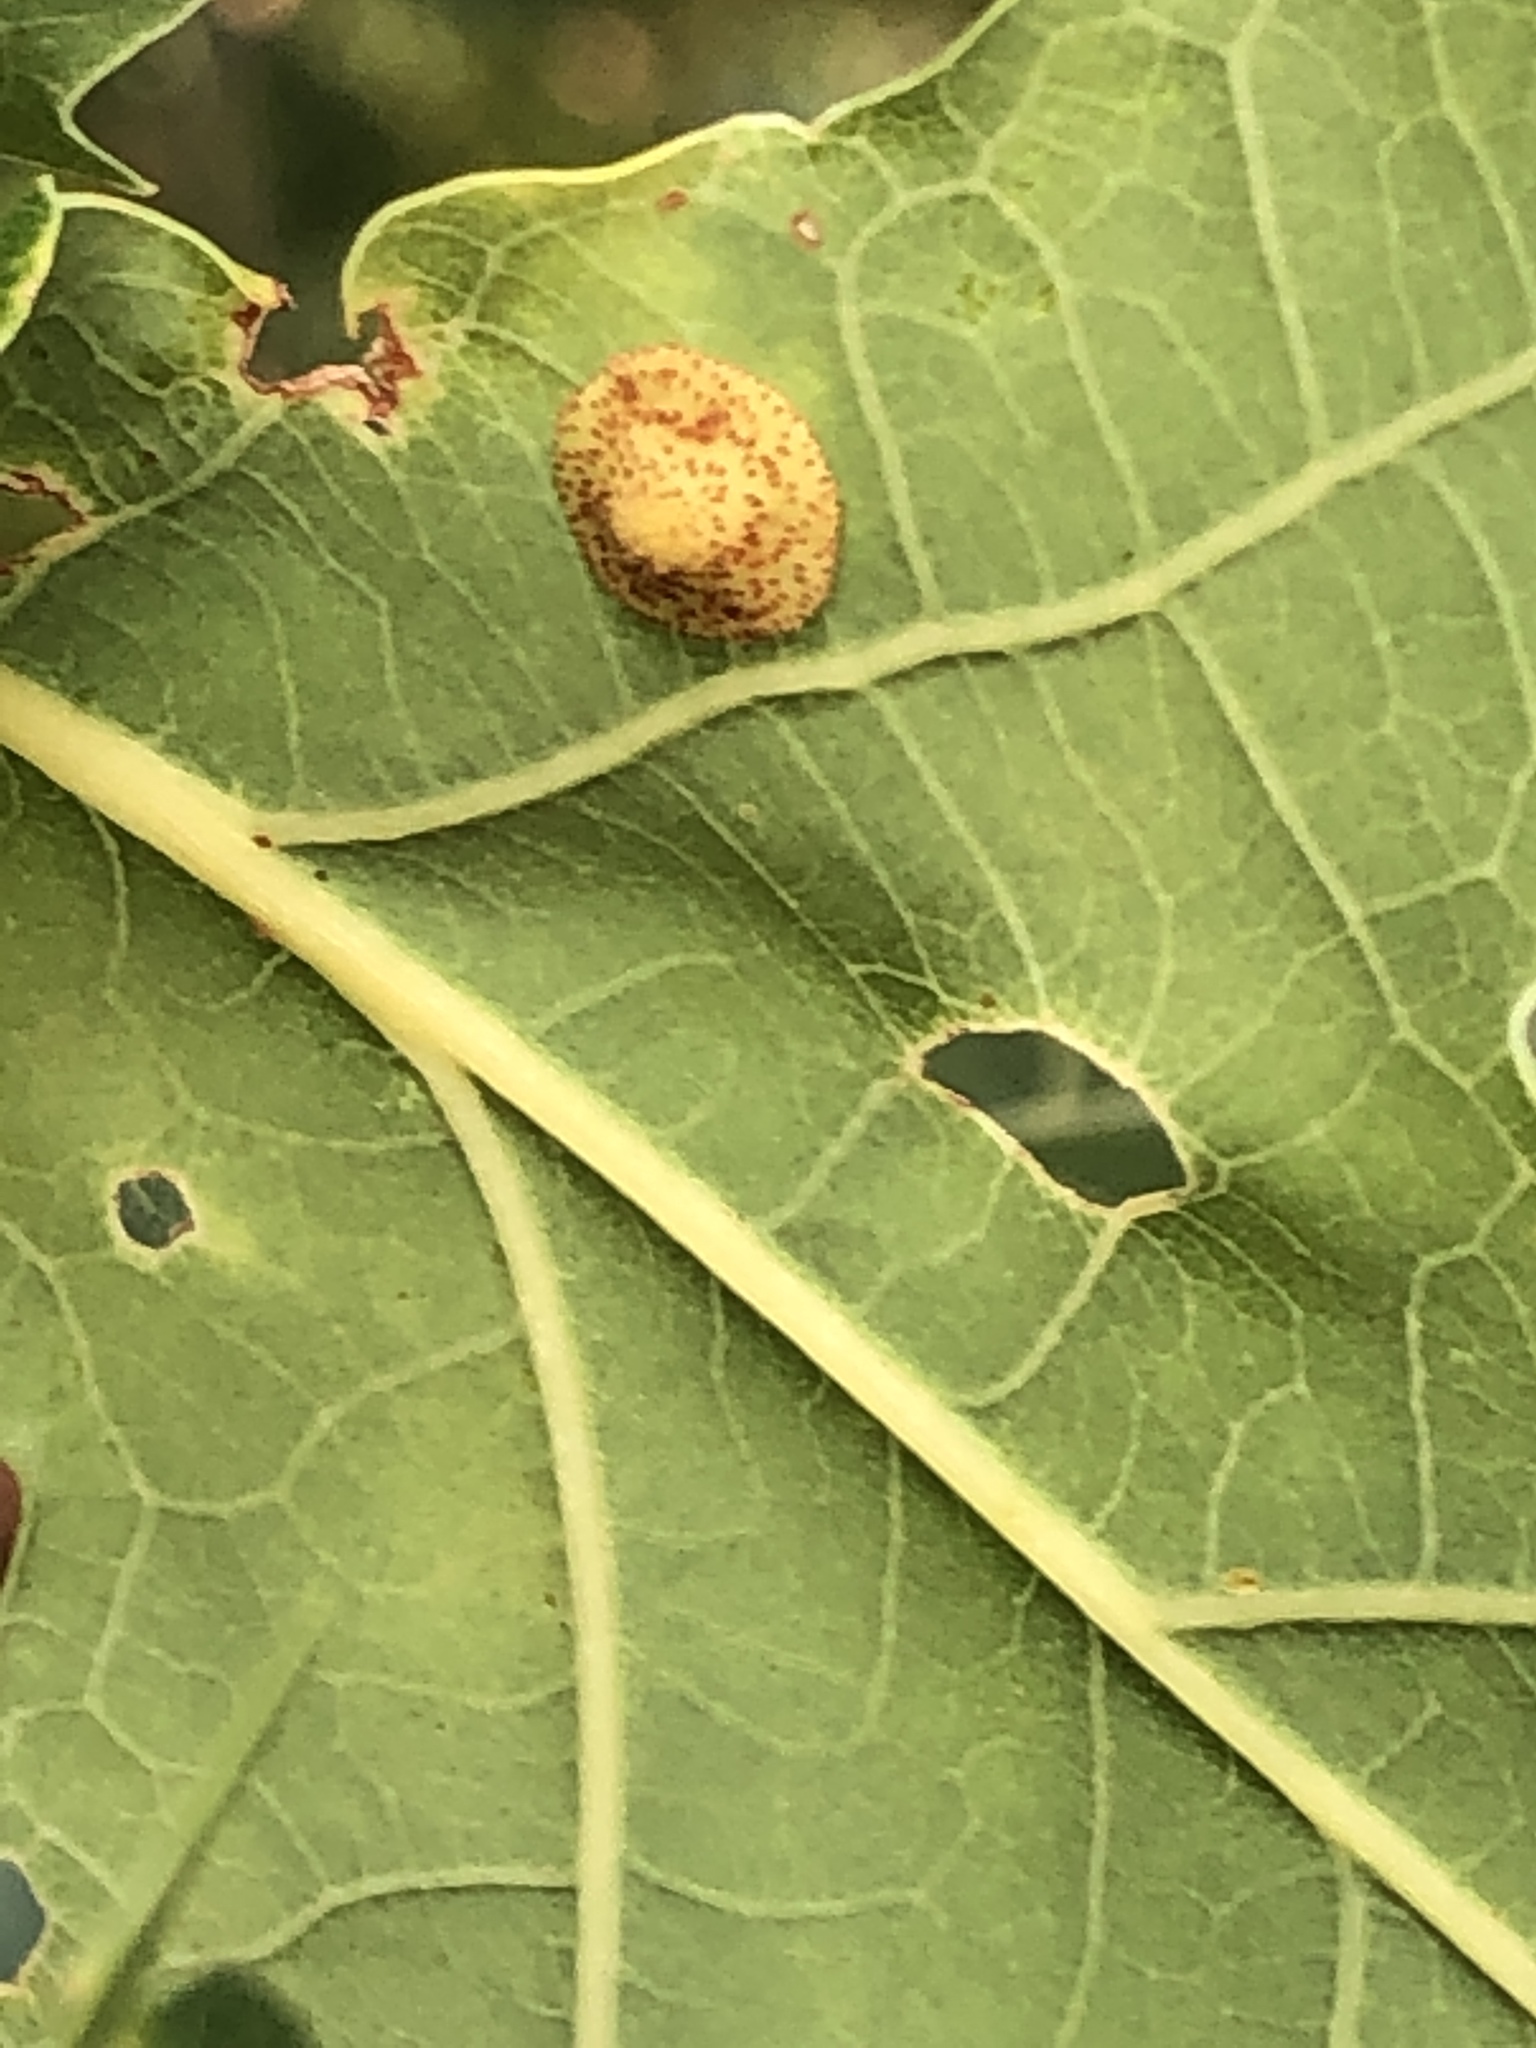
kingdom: Animalia
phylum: Arthropoda
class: Insecta
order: Hymenoptera
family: Cynipidae
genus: Neuroterus
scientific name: Neuroterus quercusbaccarum
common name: Common spangle gall
